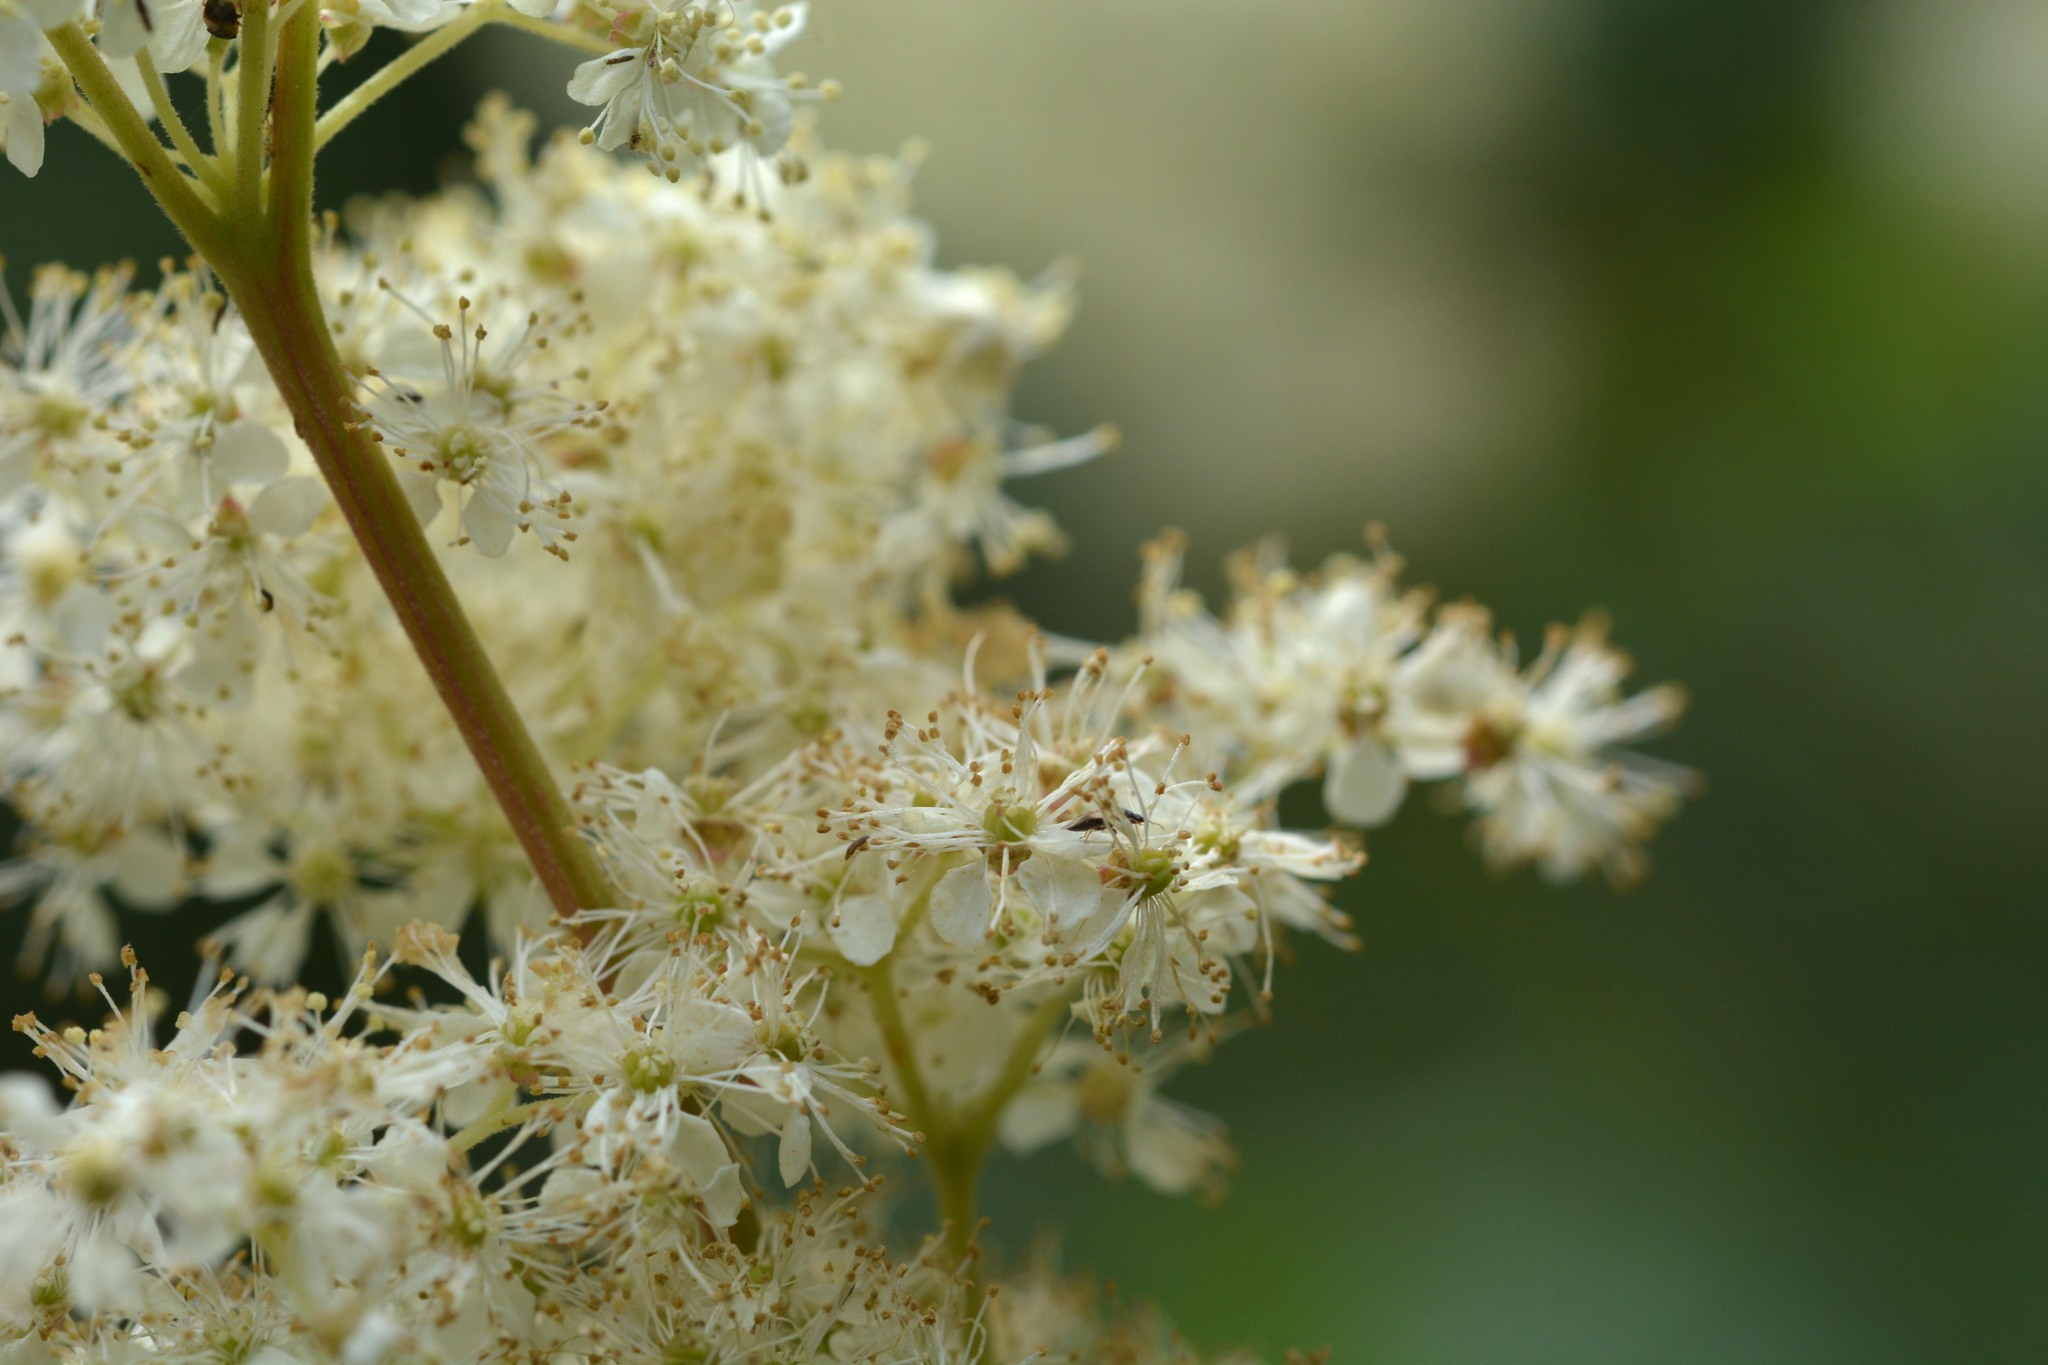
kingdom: Plantae
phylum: Tracheophyta
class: Magnoliopsida
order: Rosales
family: Rosaceae
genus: Filipendula
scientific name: Filipendula ulmaria
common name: Meadowsweet
